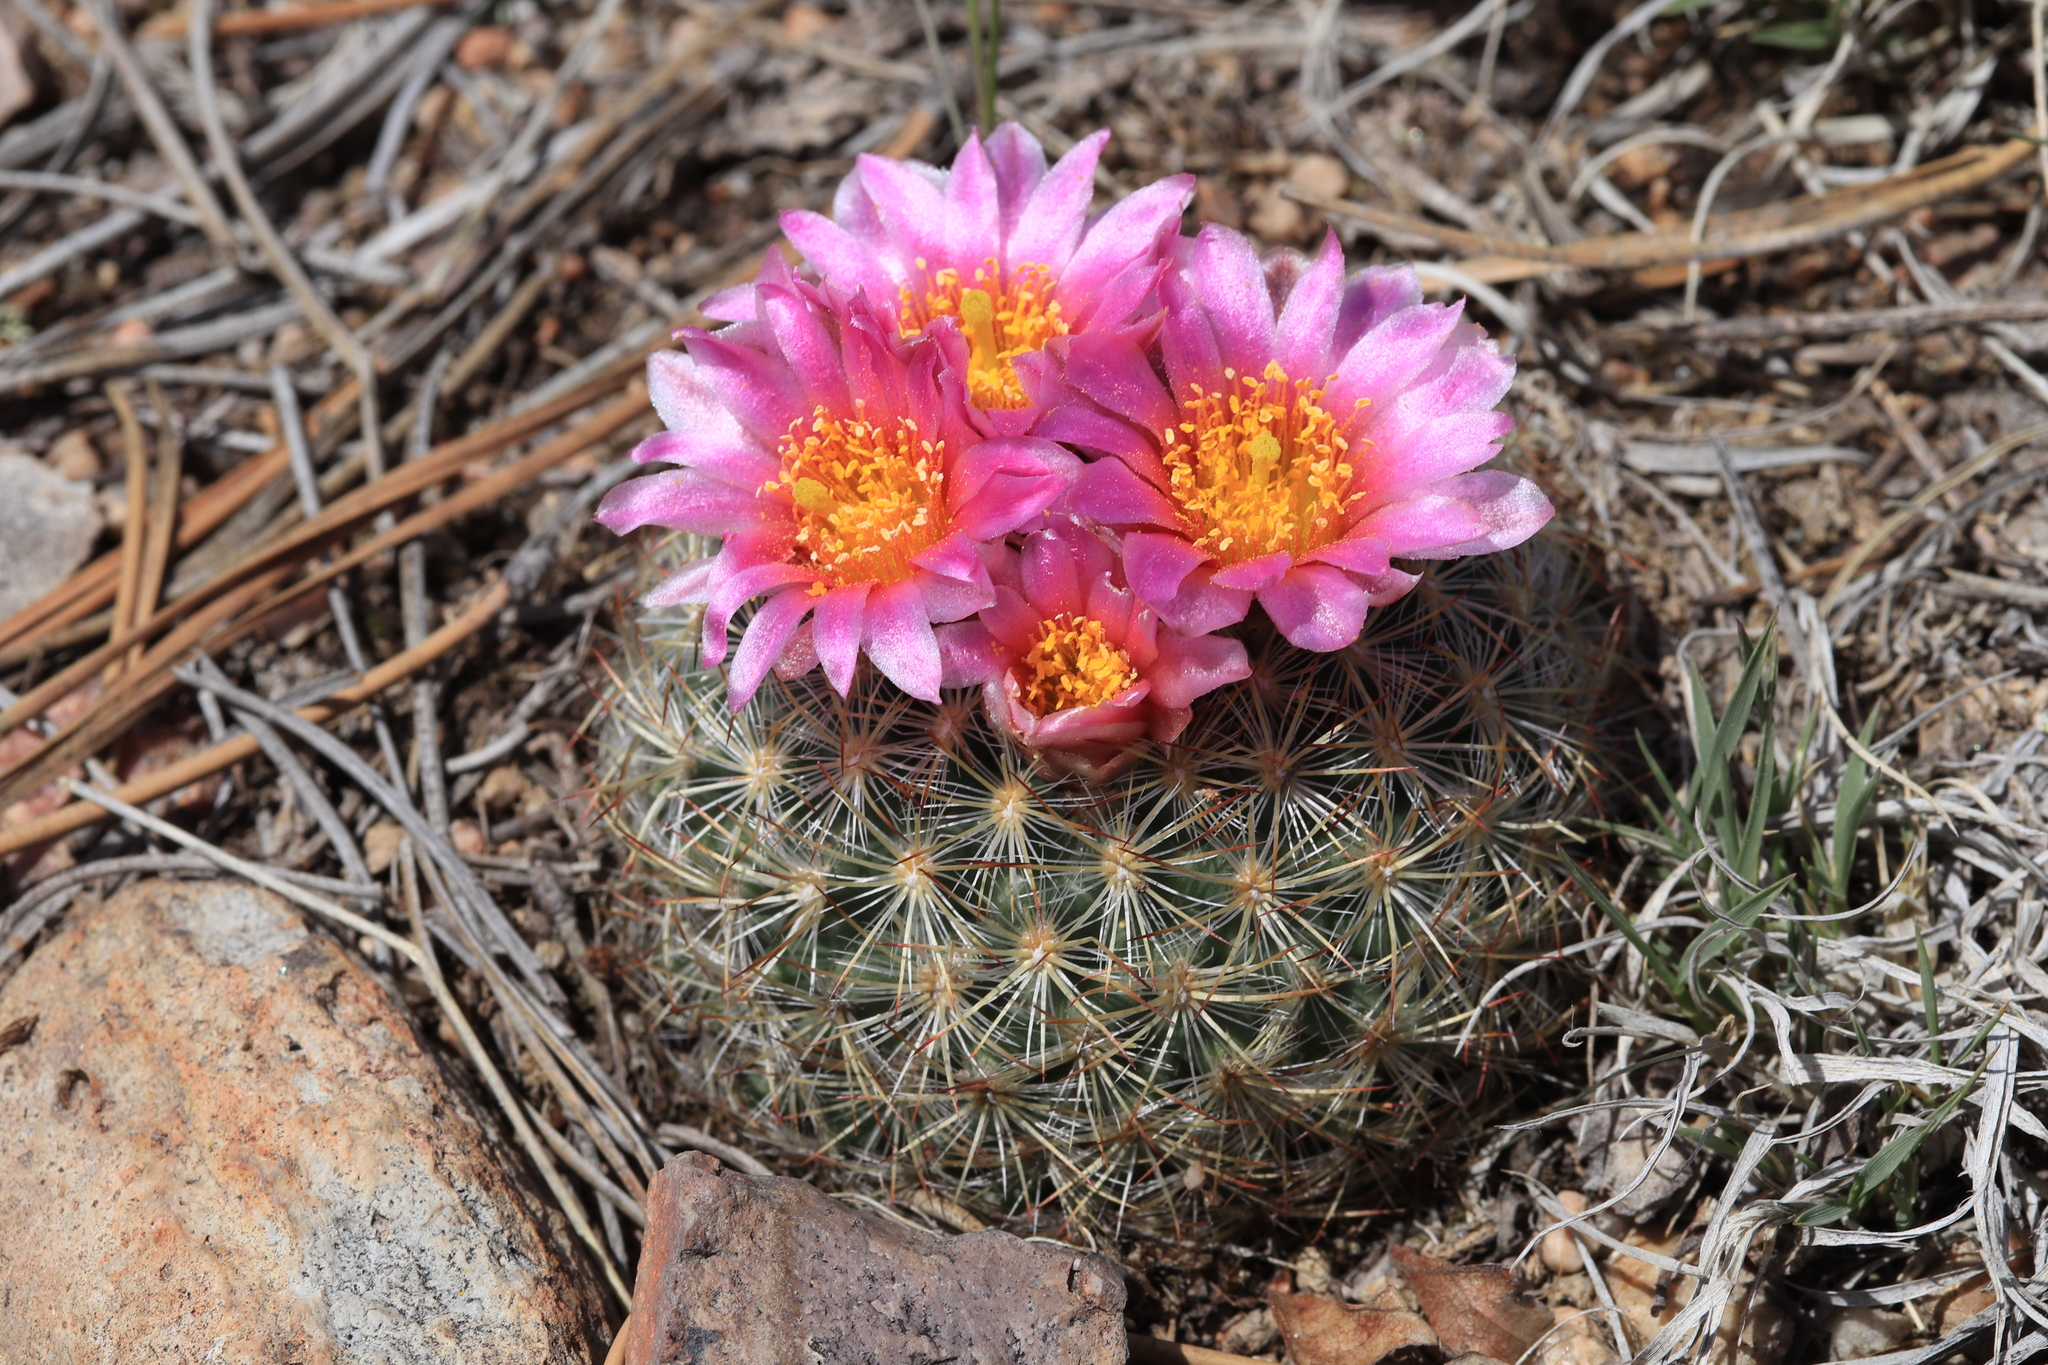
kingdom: Plantae
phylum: Tracheophyta
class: Magnoliopsida
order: Caryophyllales
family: Cactaceae
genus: Pediocactus
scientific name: Pediocactus simpsonii
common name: Simpson's hedgehog cactus
